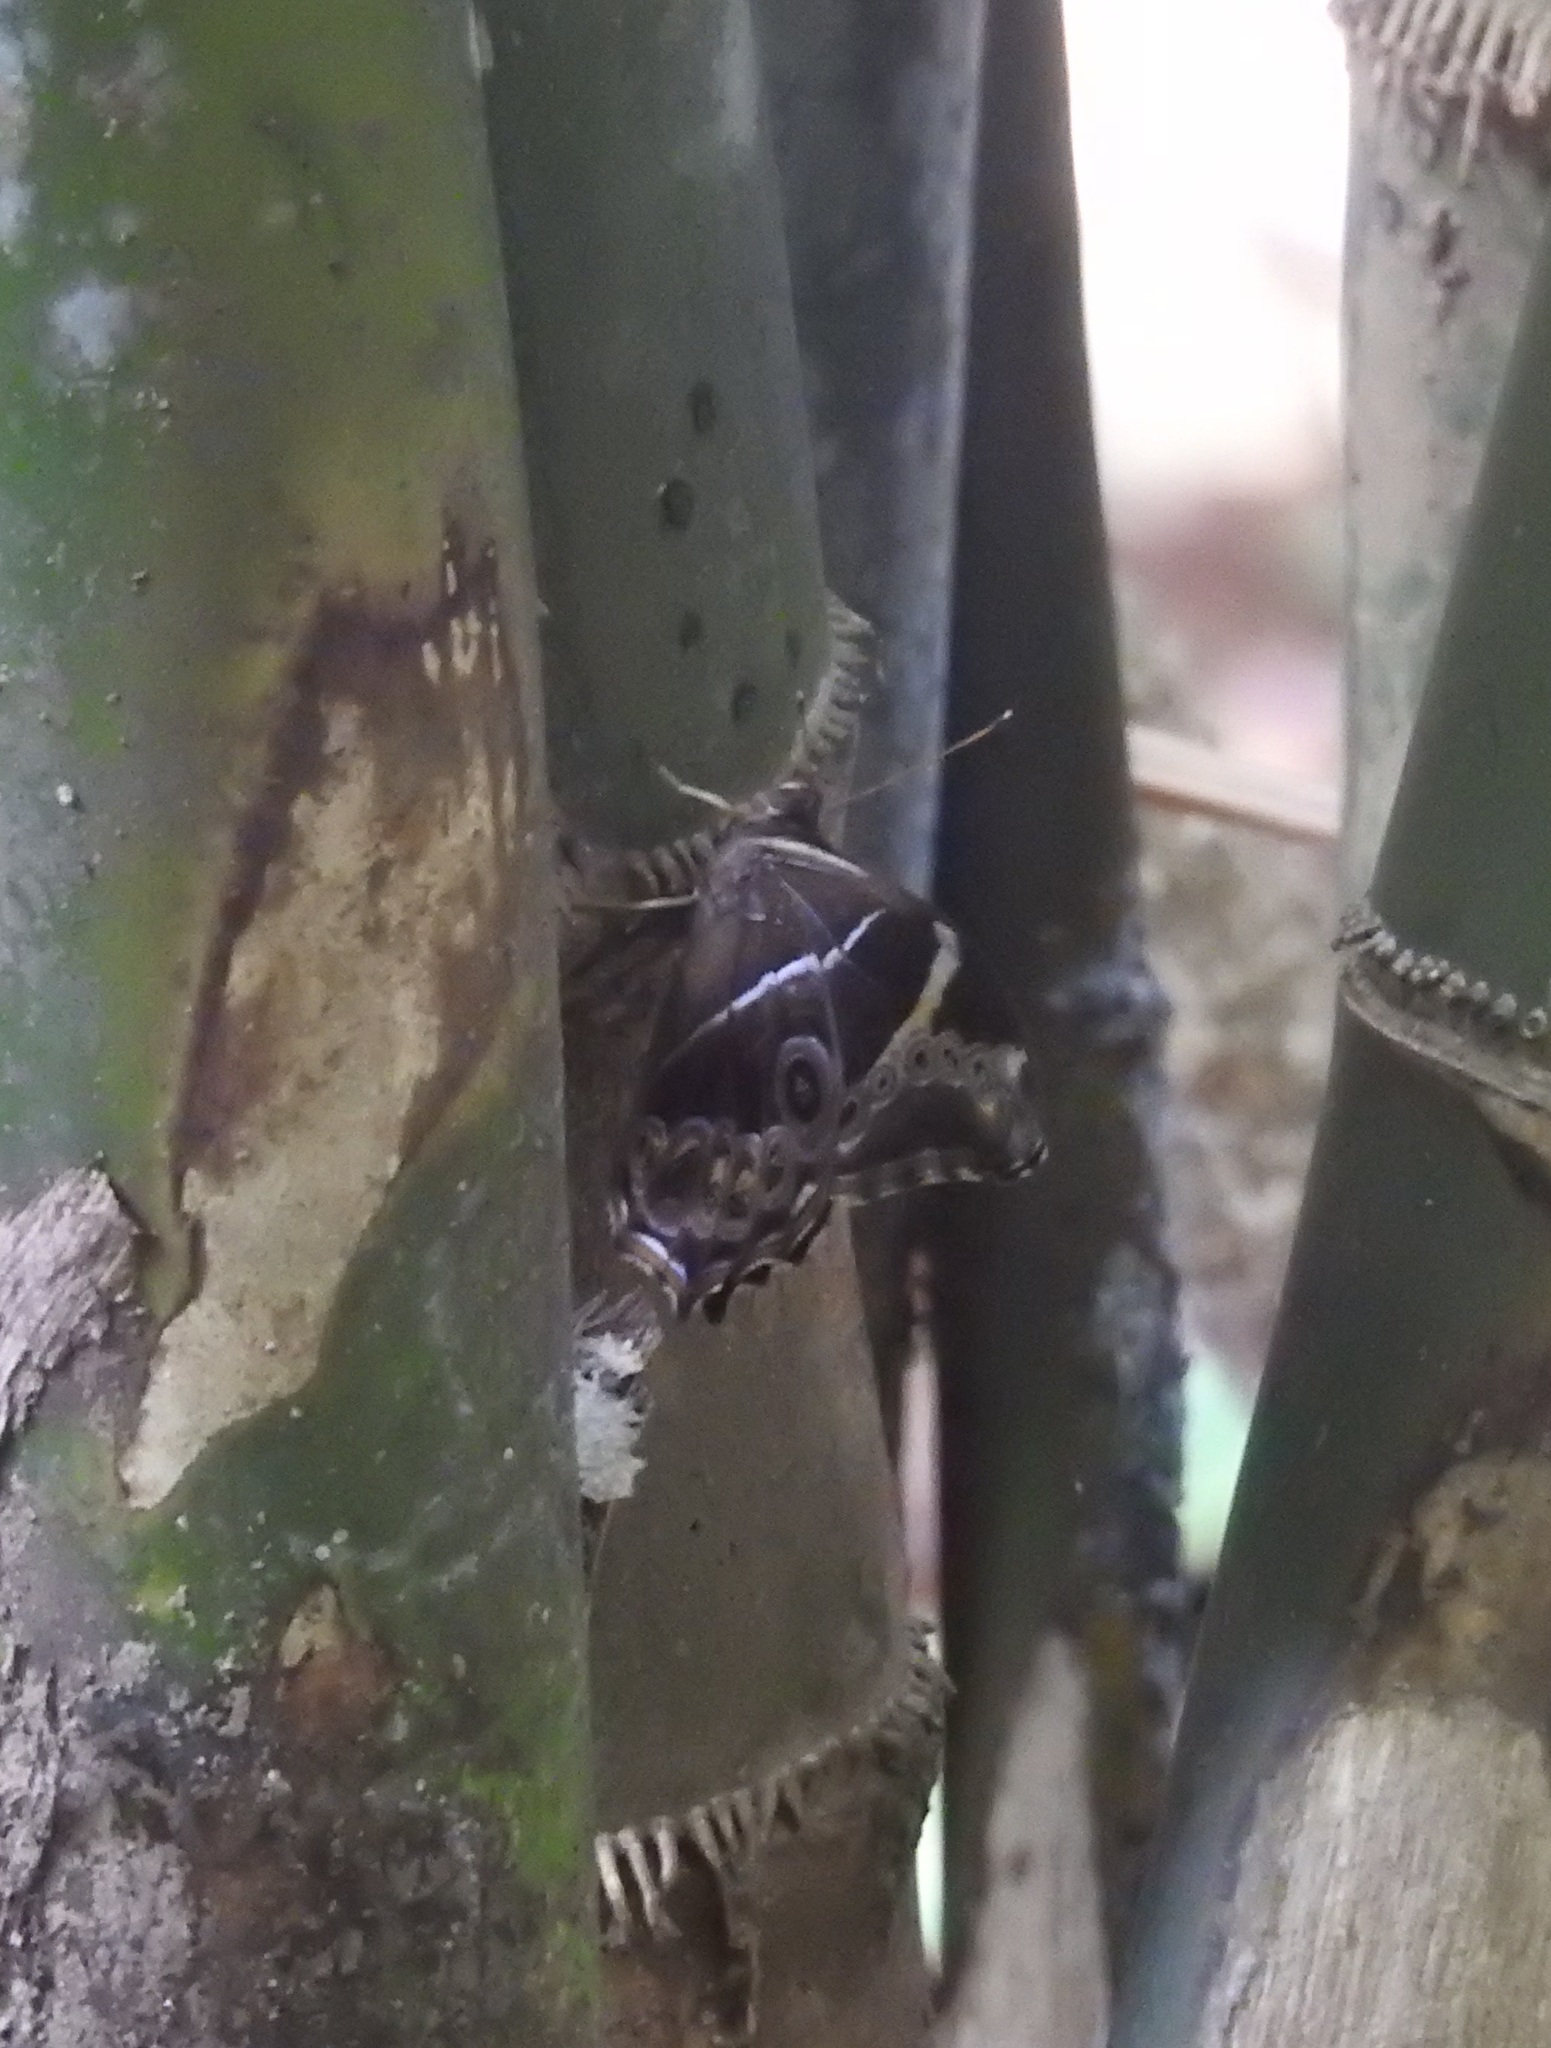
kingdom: Animalia
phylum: Arthropoda
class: Insecta
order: Lepidoptera
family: Nymphalidae
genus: Lethe
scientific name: Lethe europa
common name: Bamboo treebrown
